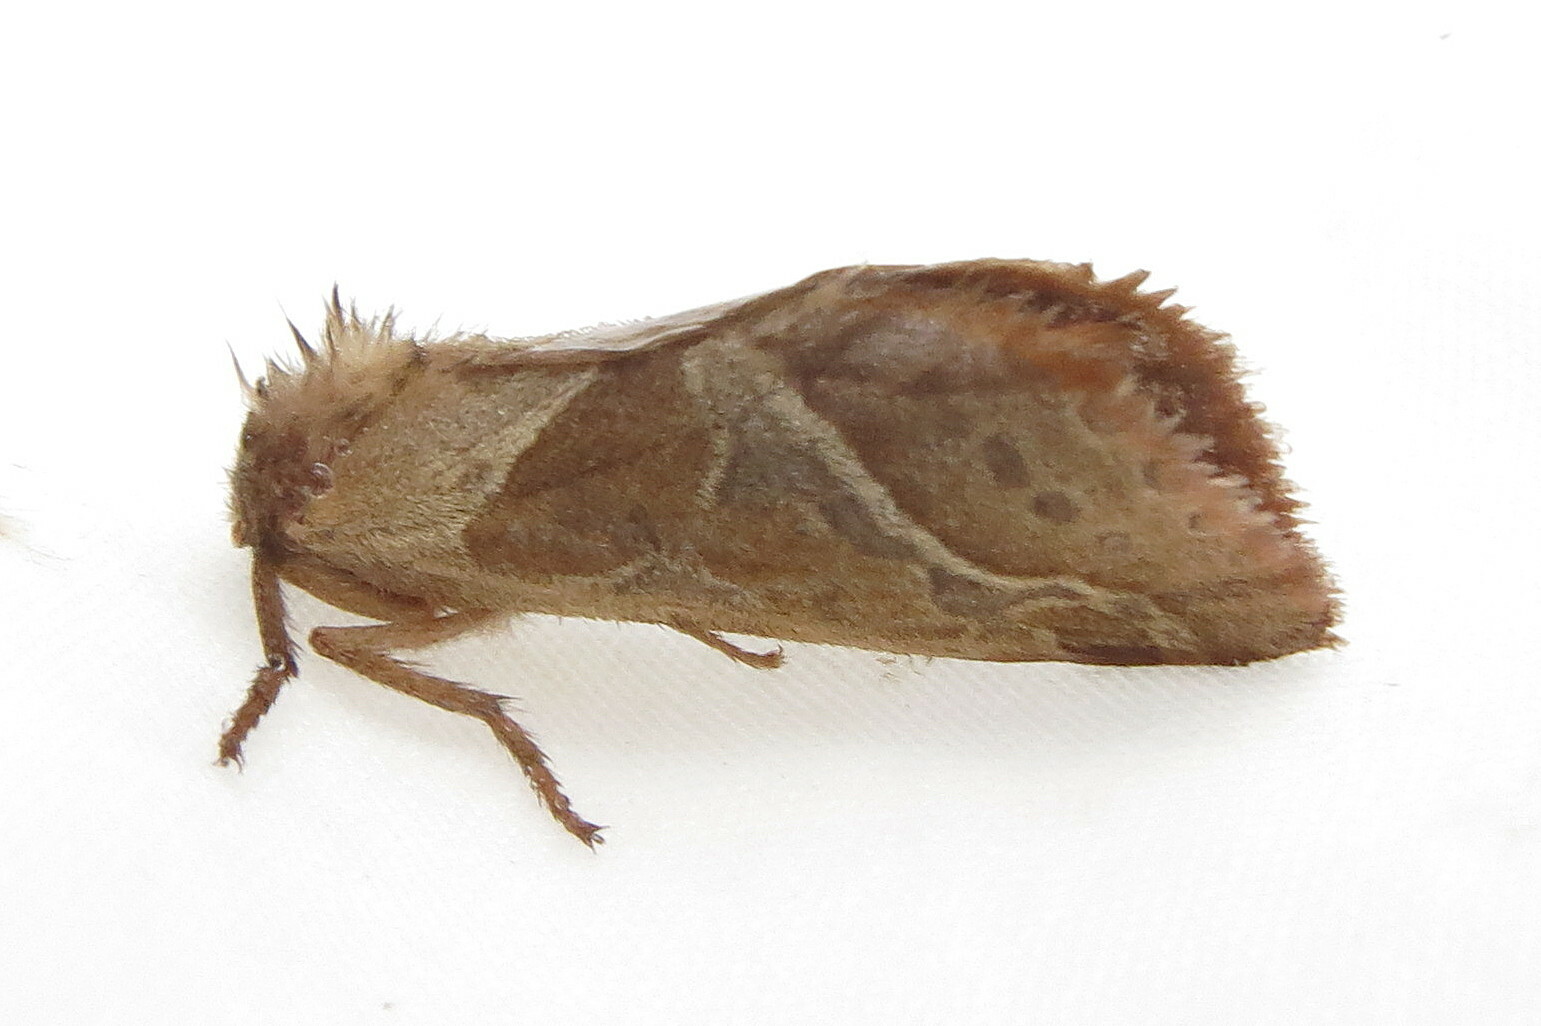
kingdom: Animalia
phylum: Arthropoda
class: Insecta
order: Lepidoptera
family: Hepialidae
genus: Triodia
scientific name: Triodia sylvina
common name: Orange swift
